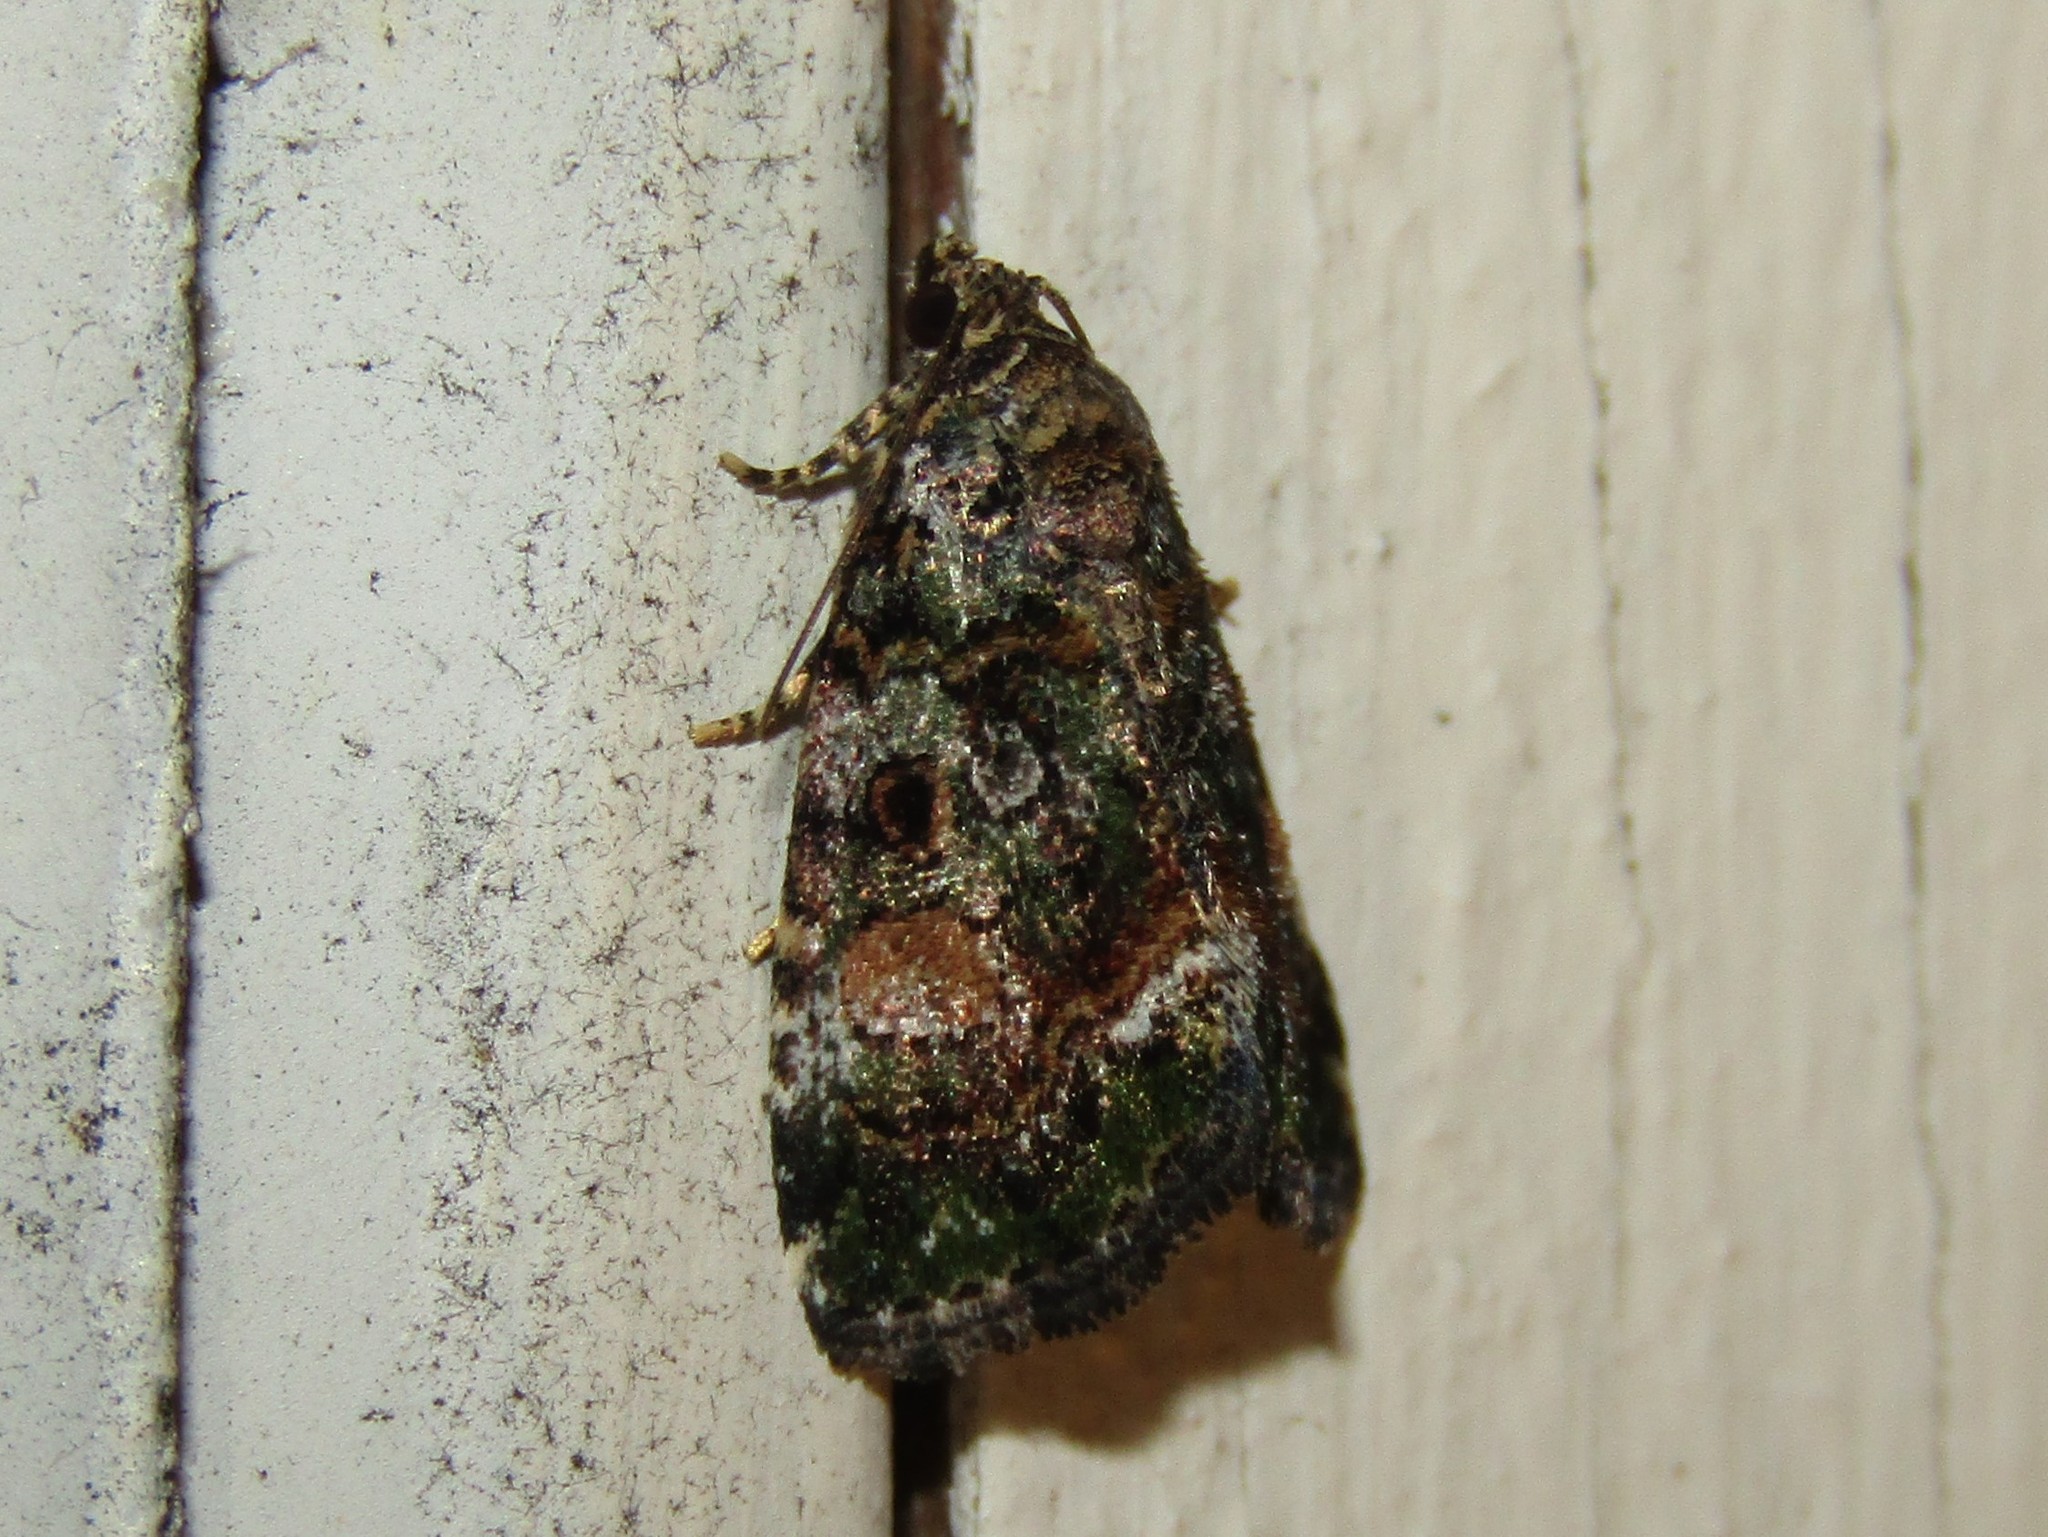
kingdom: Animalia
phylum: Arthropoda
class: Insecta
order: Lepidoptera
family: Noctuidae
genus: Lithacodia
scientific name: Lithacodia musta
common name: Small mossy glyph
